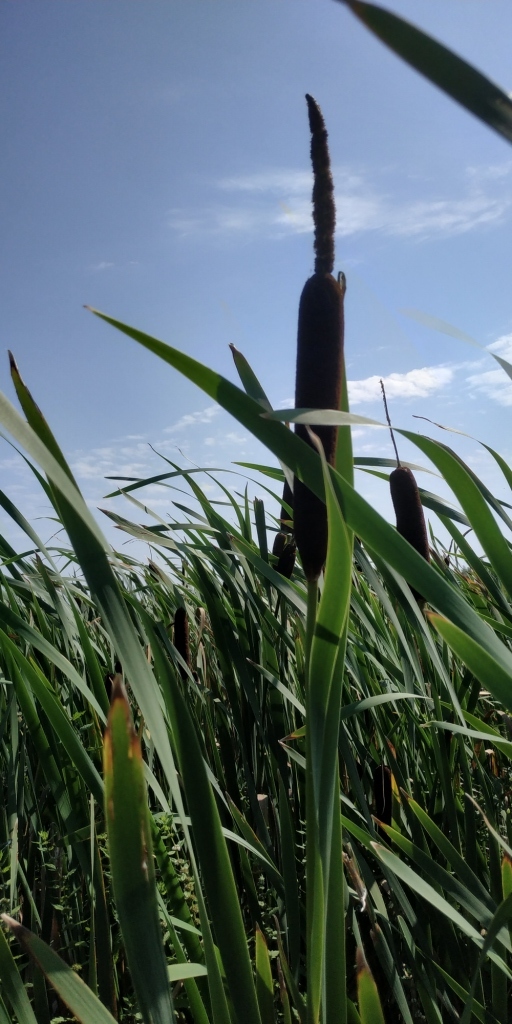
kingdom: Plantae
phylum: Tracheophyta
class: Liliopsida
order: Poales
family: Typhaceae
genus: Typha
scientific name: Typha latifolia
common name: Broadleaf cattail
